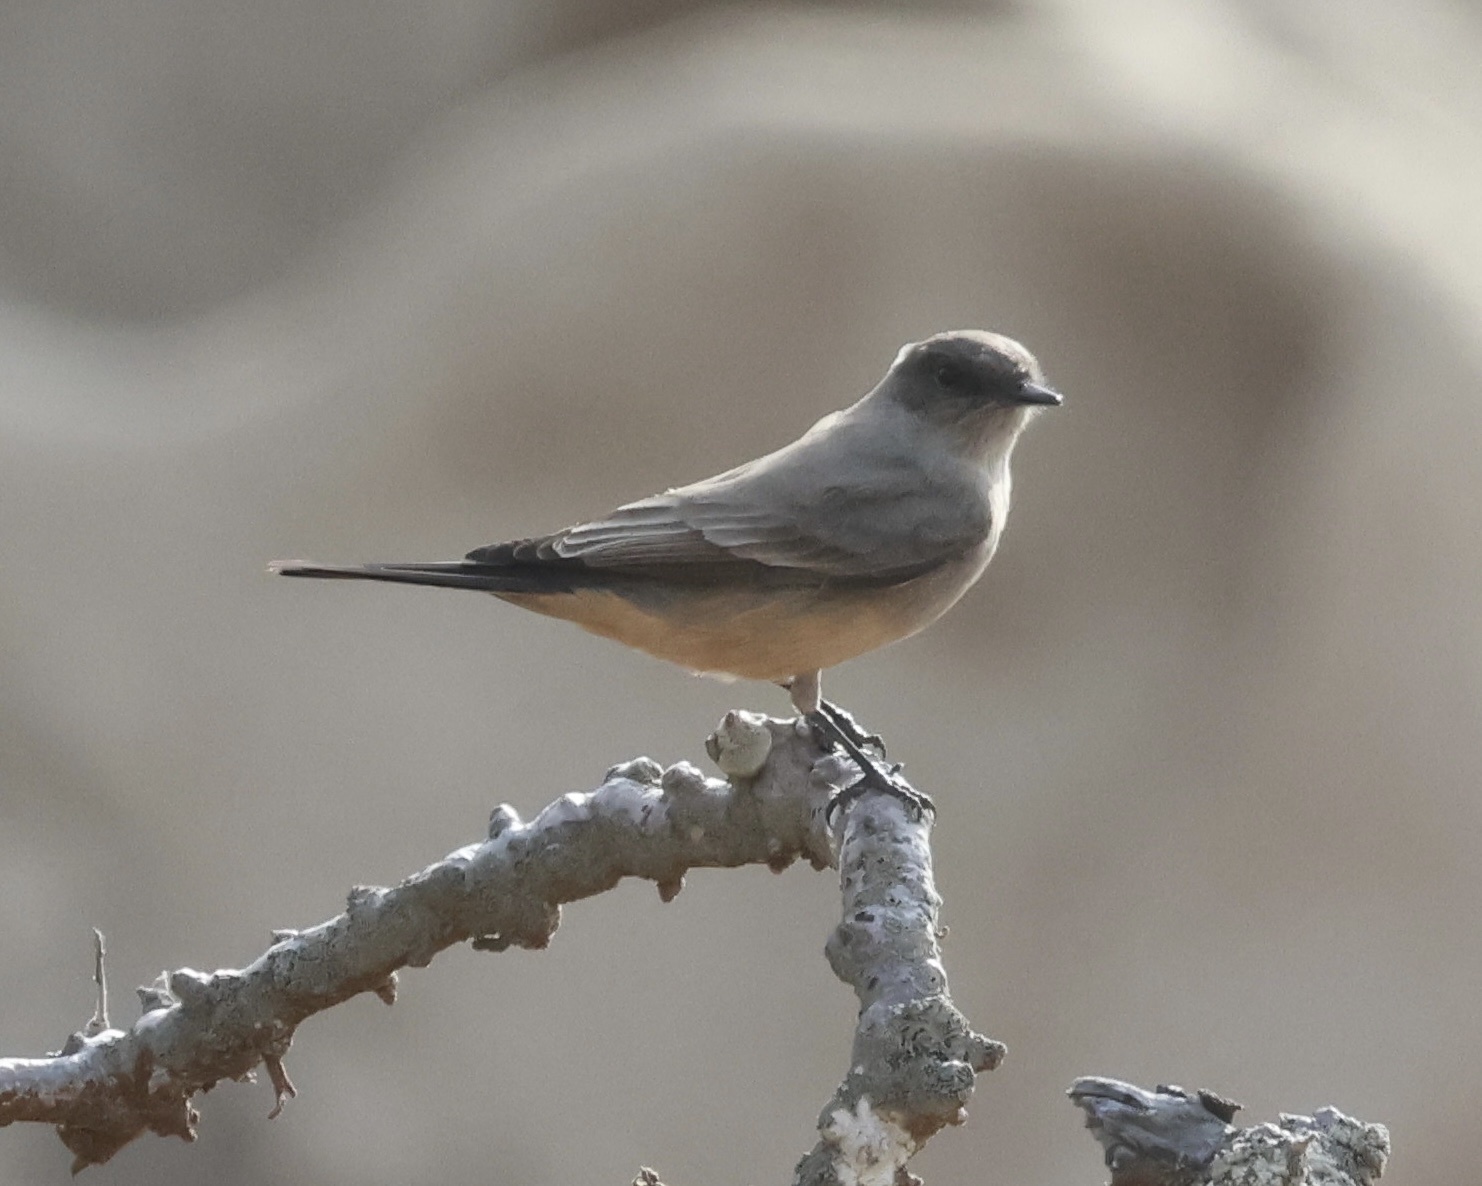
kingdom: Animalia
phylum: Chordata
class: Aves
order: Passeriformes
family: Tyrannidae
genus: Sayornis
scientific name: Sayornis saya
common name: Say's phoebe
